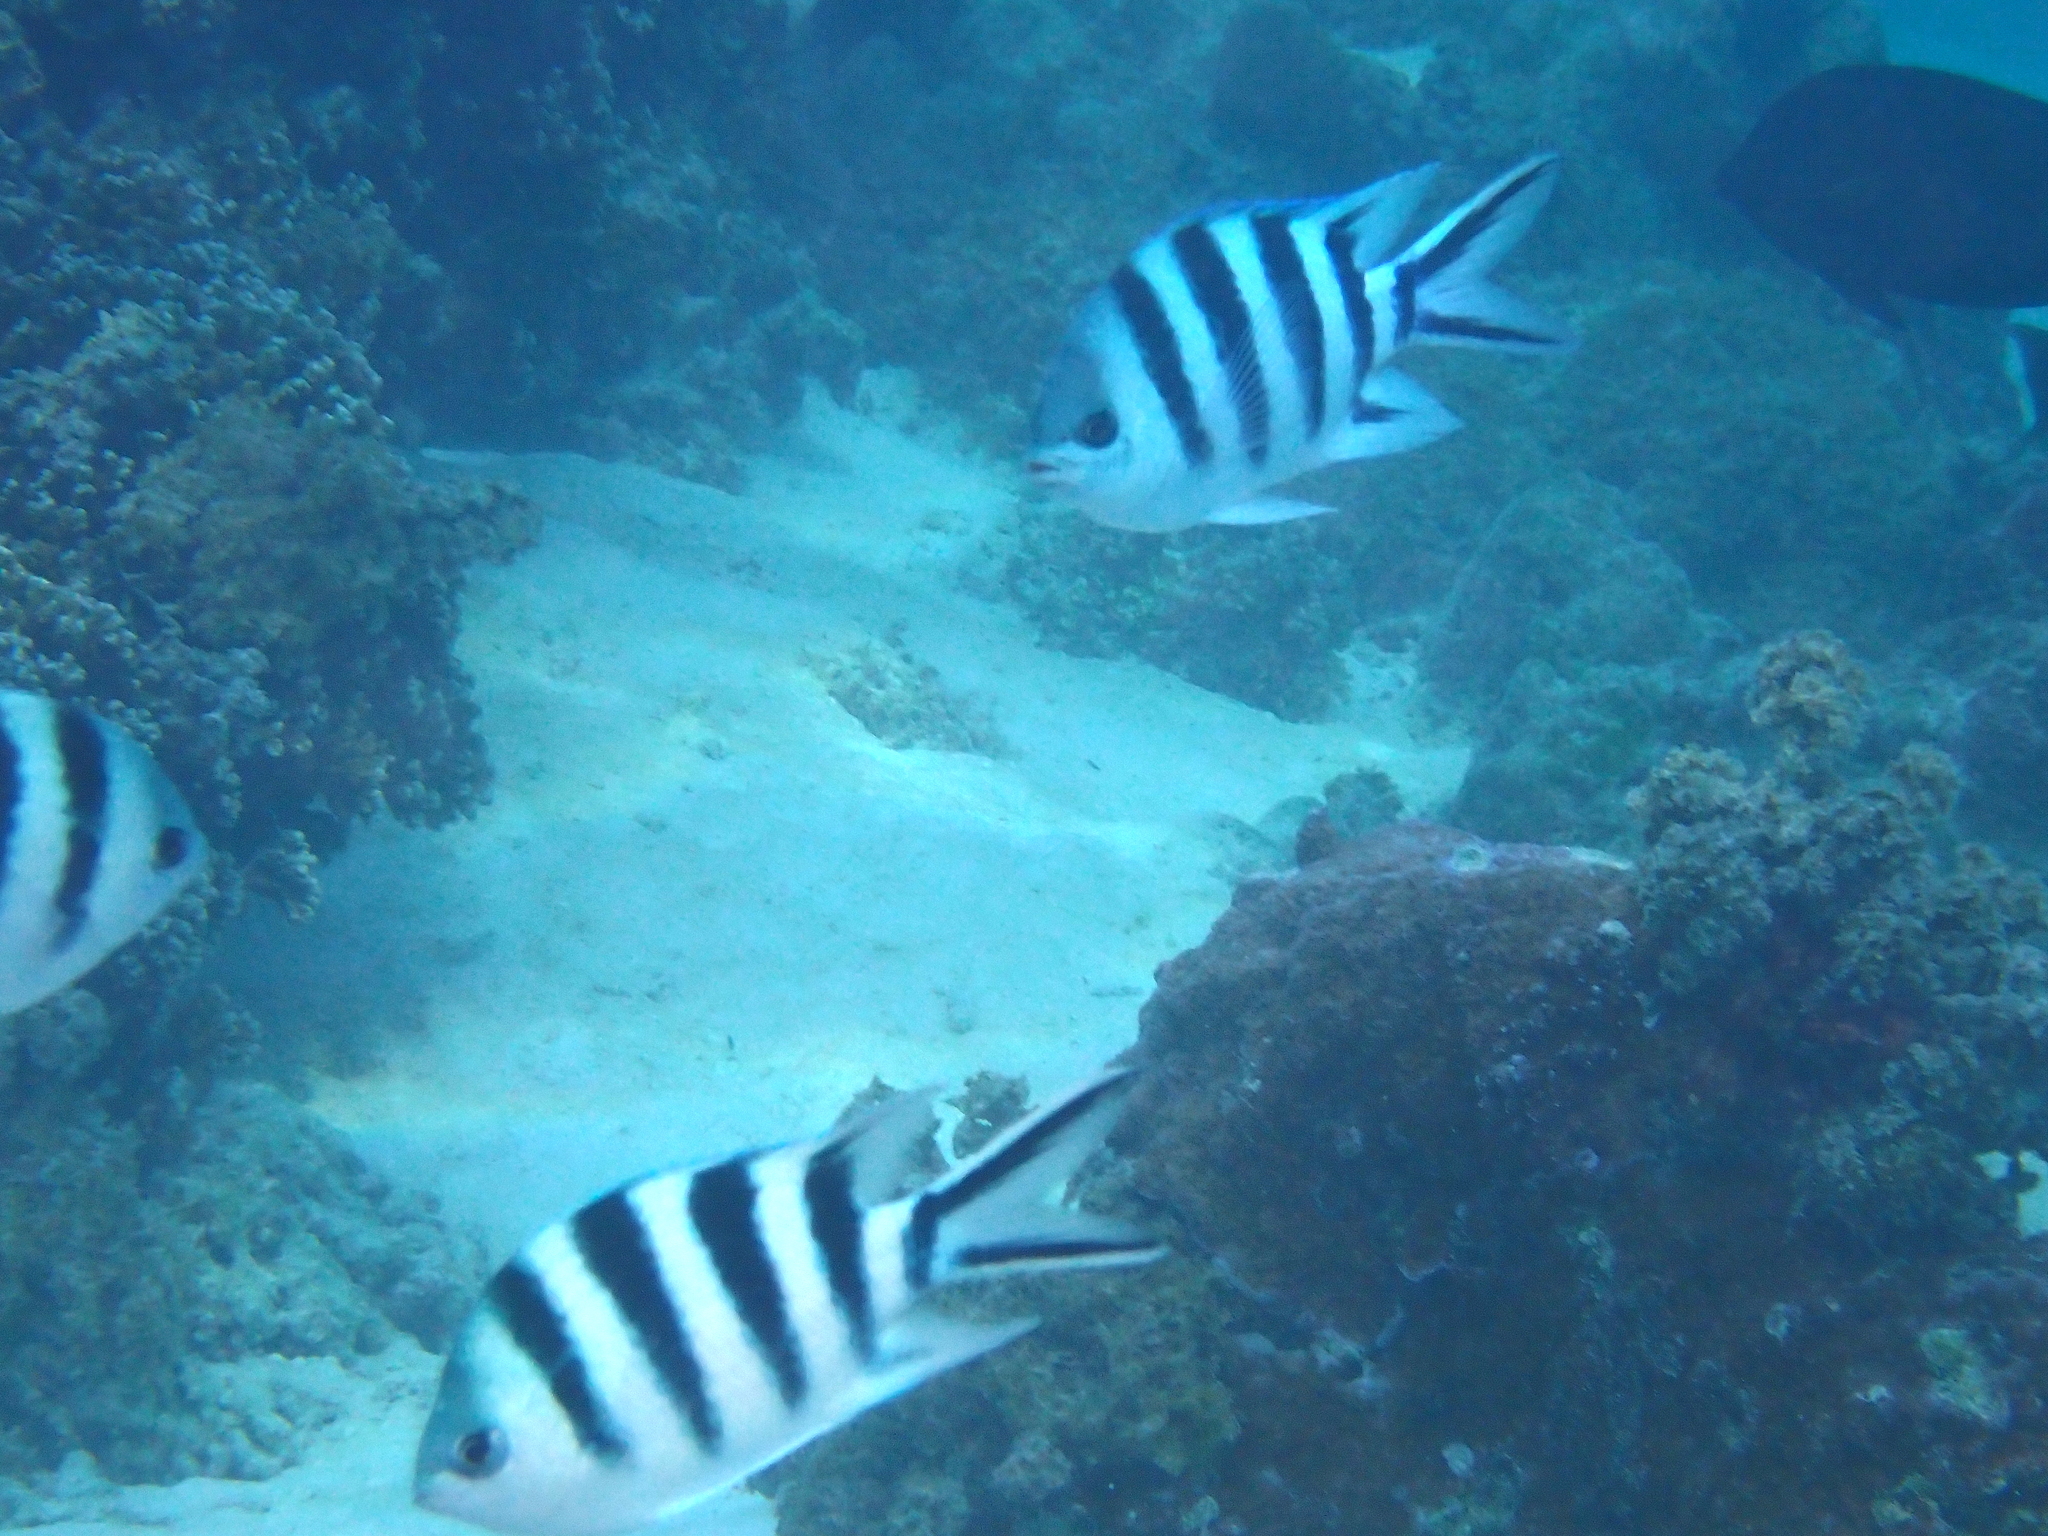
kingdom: Animalia
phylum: Chordata
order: Perciformes
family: Pomacentridae
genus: Abudefduf
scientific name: Abudefduf sexfasciatus
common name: Scissortail sergeant
